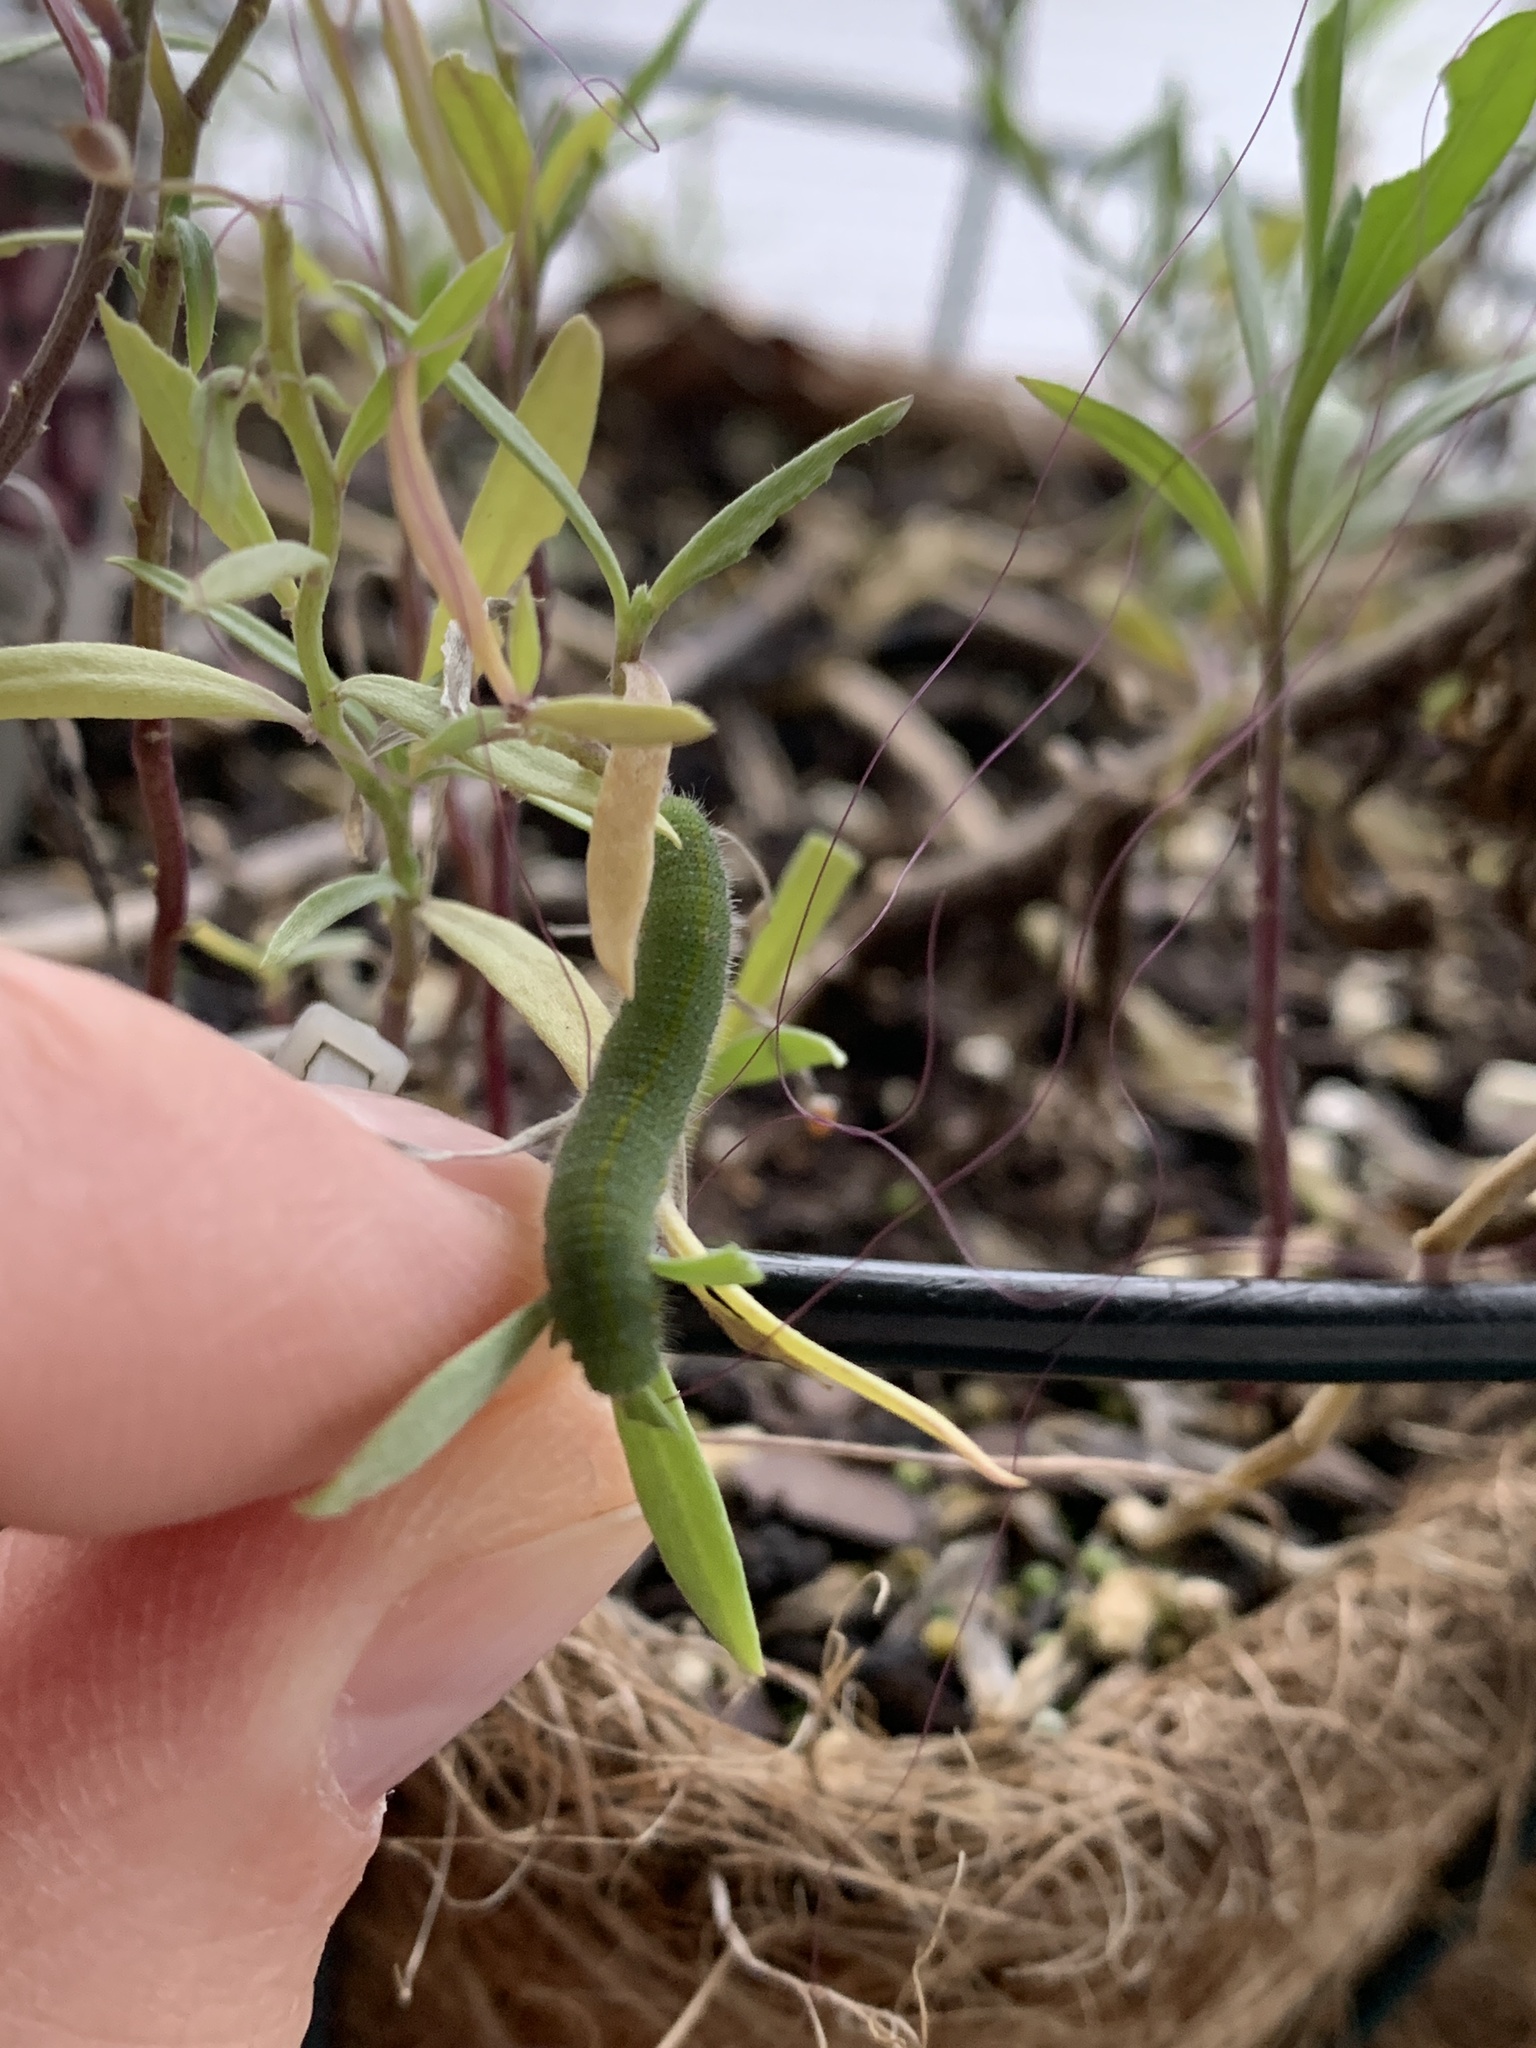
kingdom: Animalia
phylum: Arthropoda
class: Insecta
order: Lepidoptera
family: Pieridae
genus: Pieris
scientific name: Pieris rapae
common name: Small white
